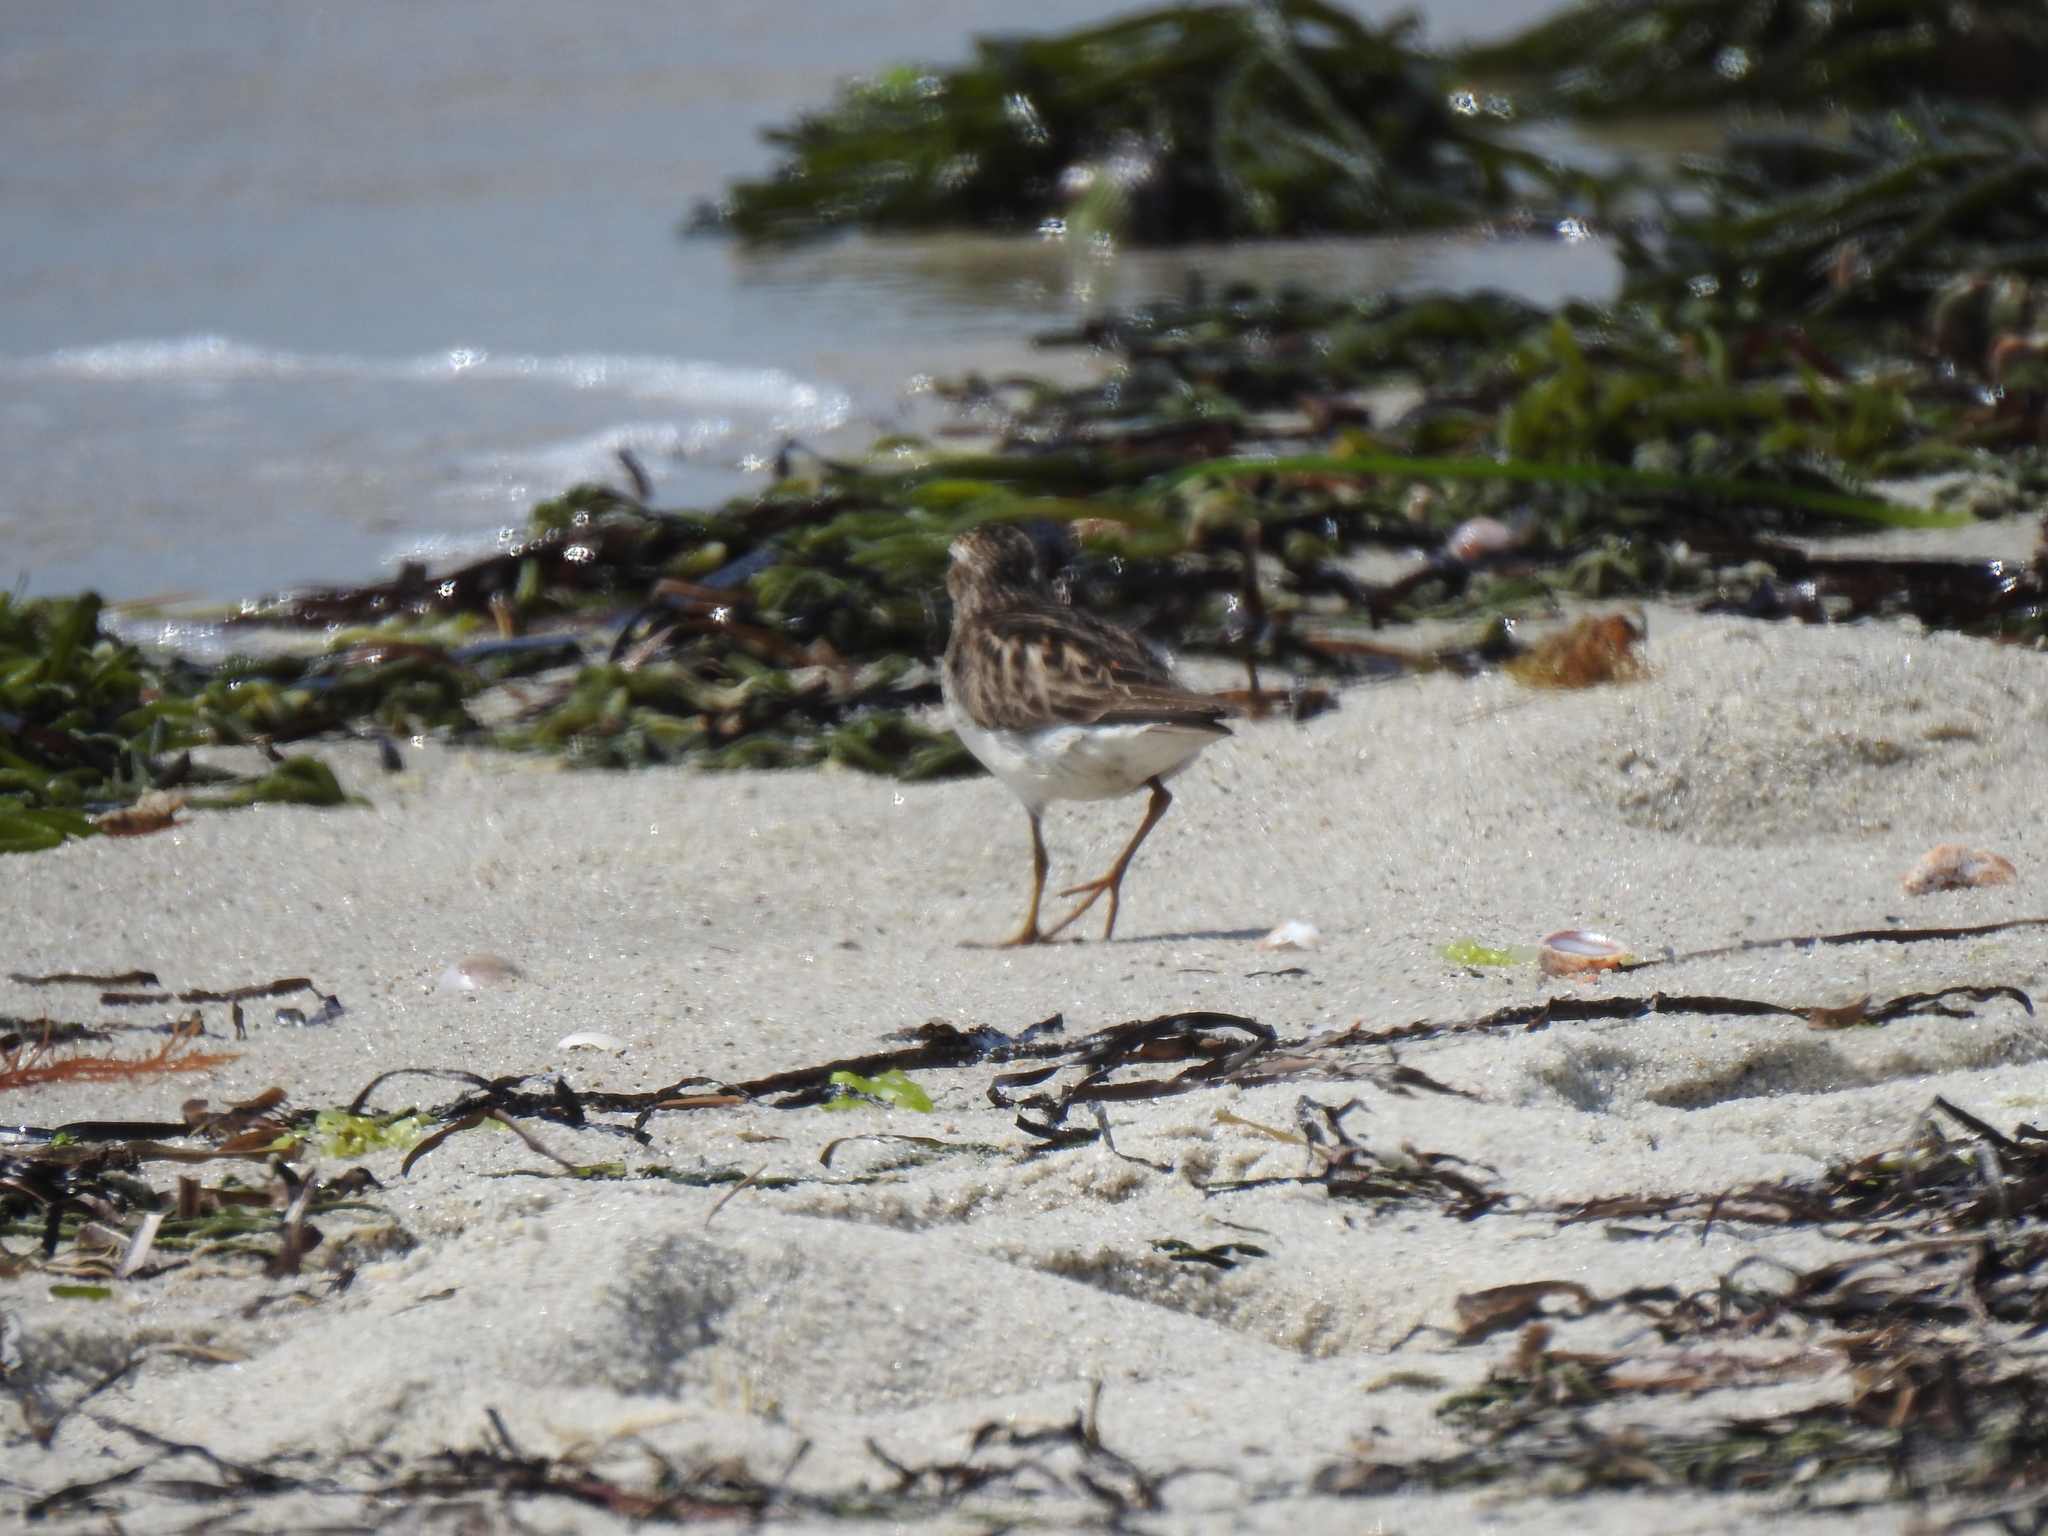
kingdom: Animalia
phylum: Chordata
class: Aves
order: Charadriiformes
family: Scolopacidae
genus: Calidris
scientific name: Calidris minutilla
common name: Least sandpiper
